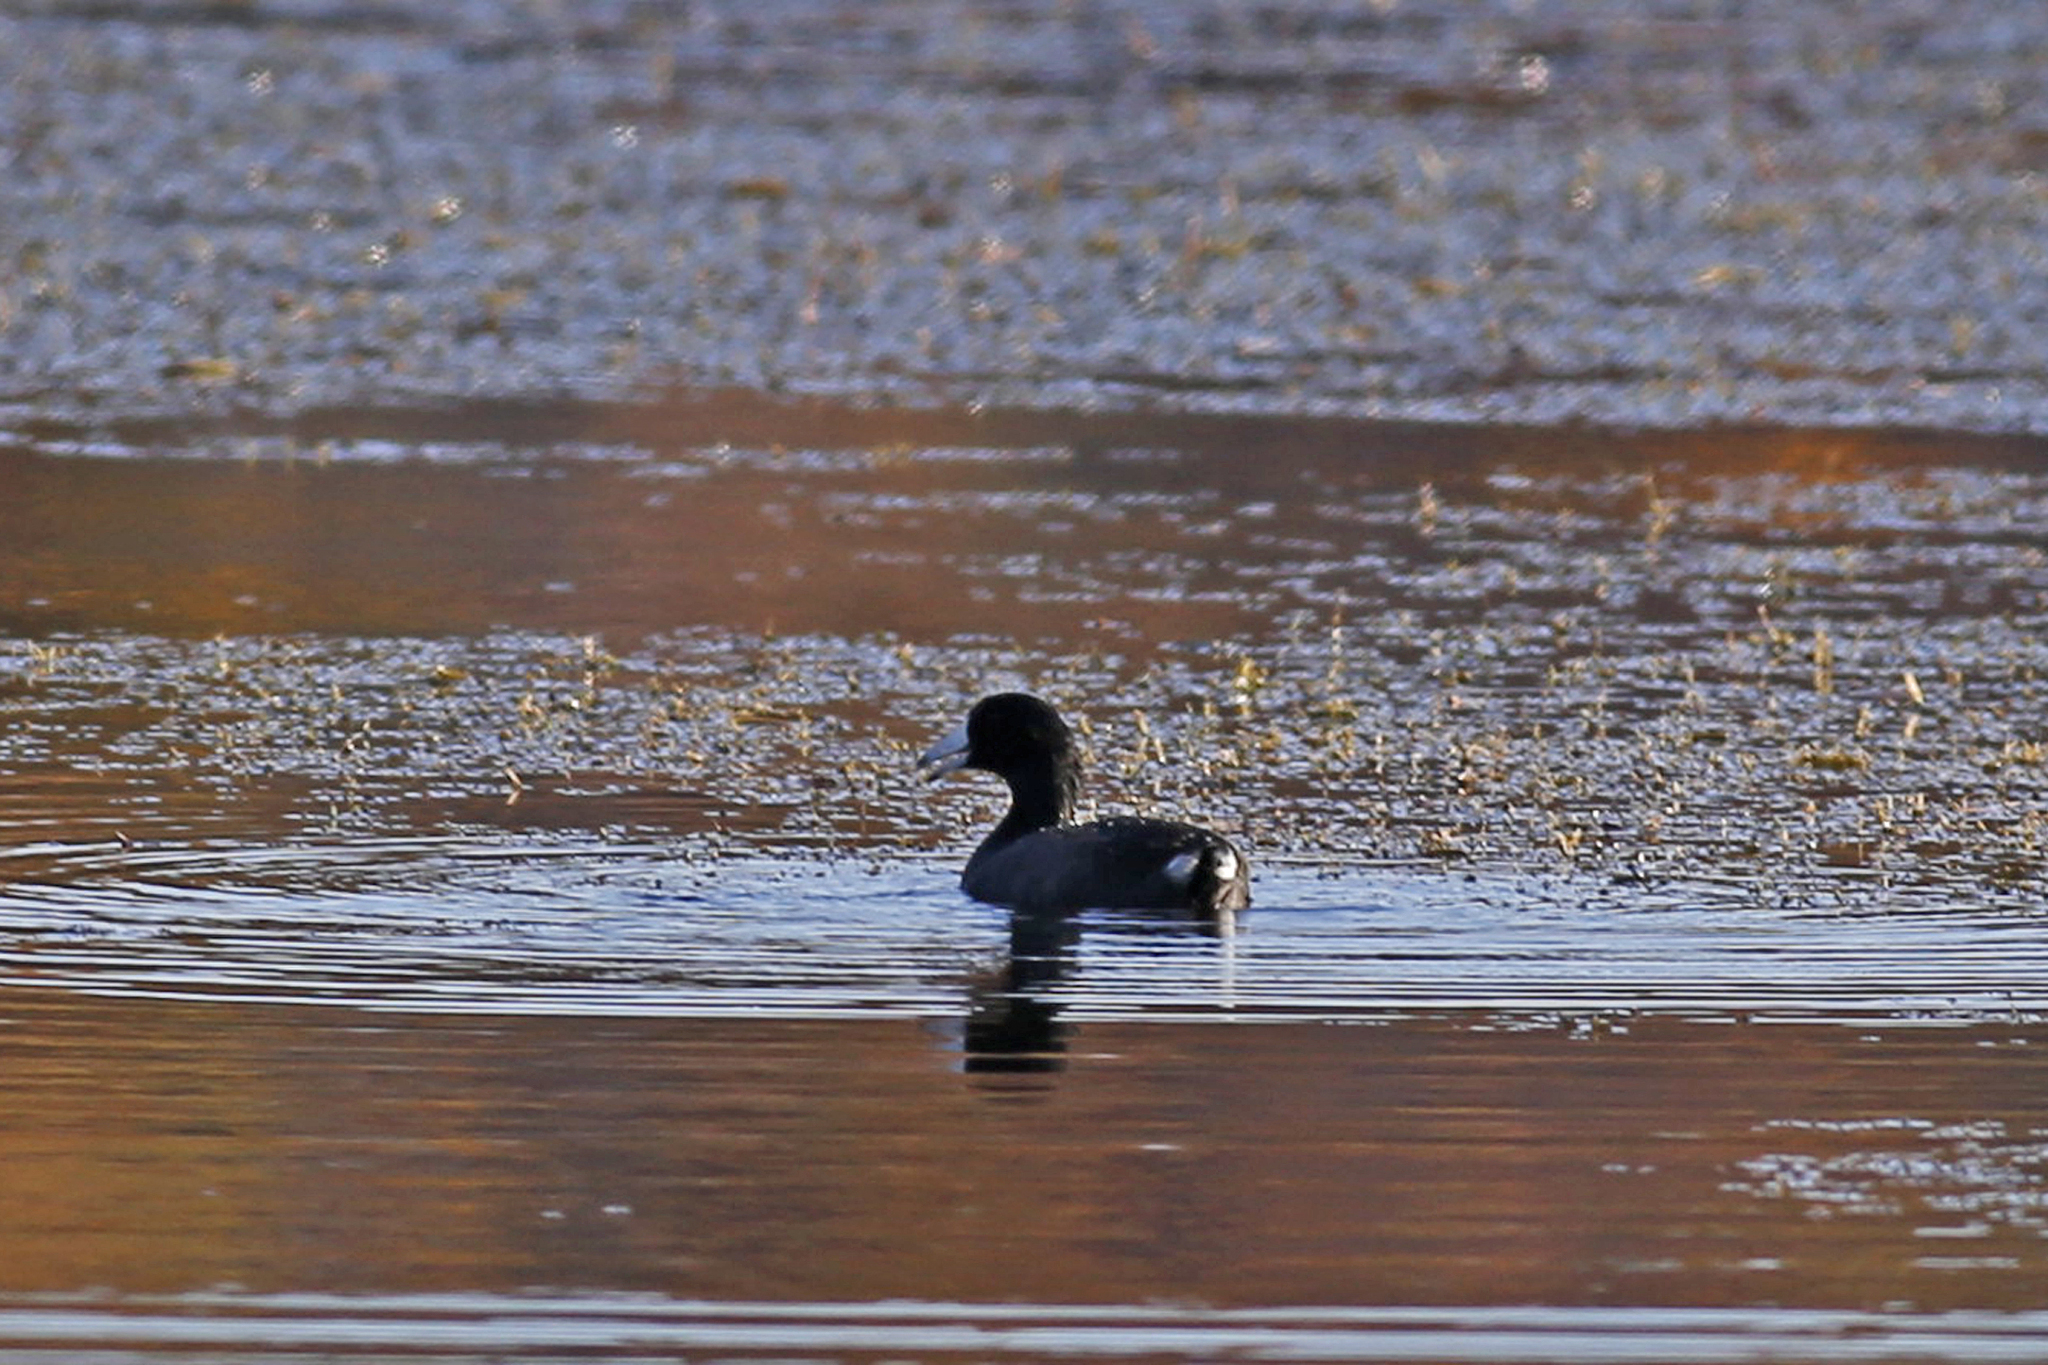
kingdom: Animalia
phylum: Chordata
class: Aves
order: Gruiformes
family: Rallidae
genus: Fulica
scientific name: Fulica americana
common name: American coot
